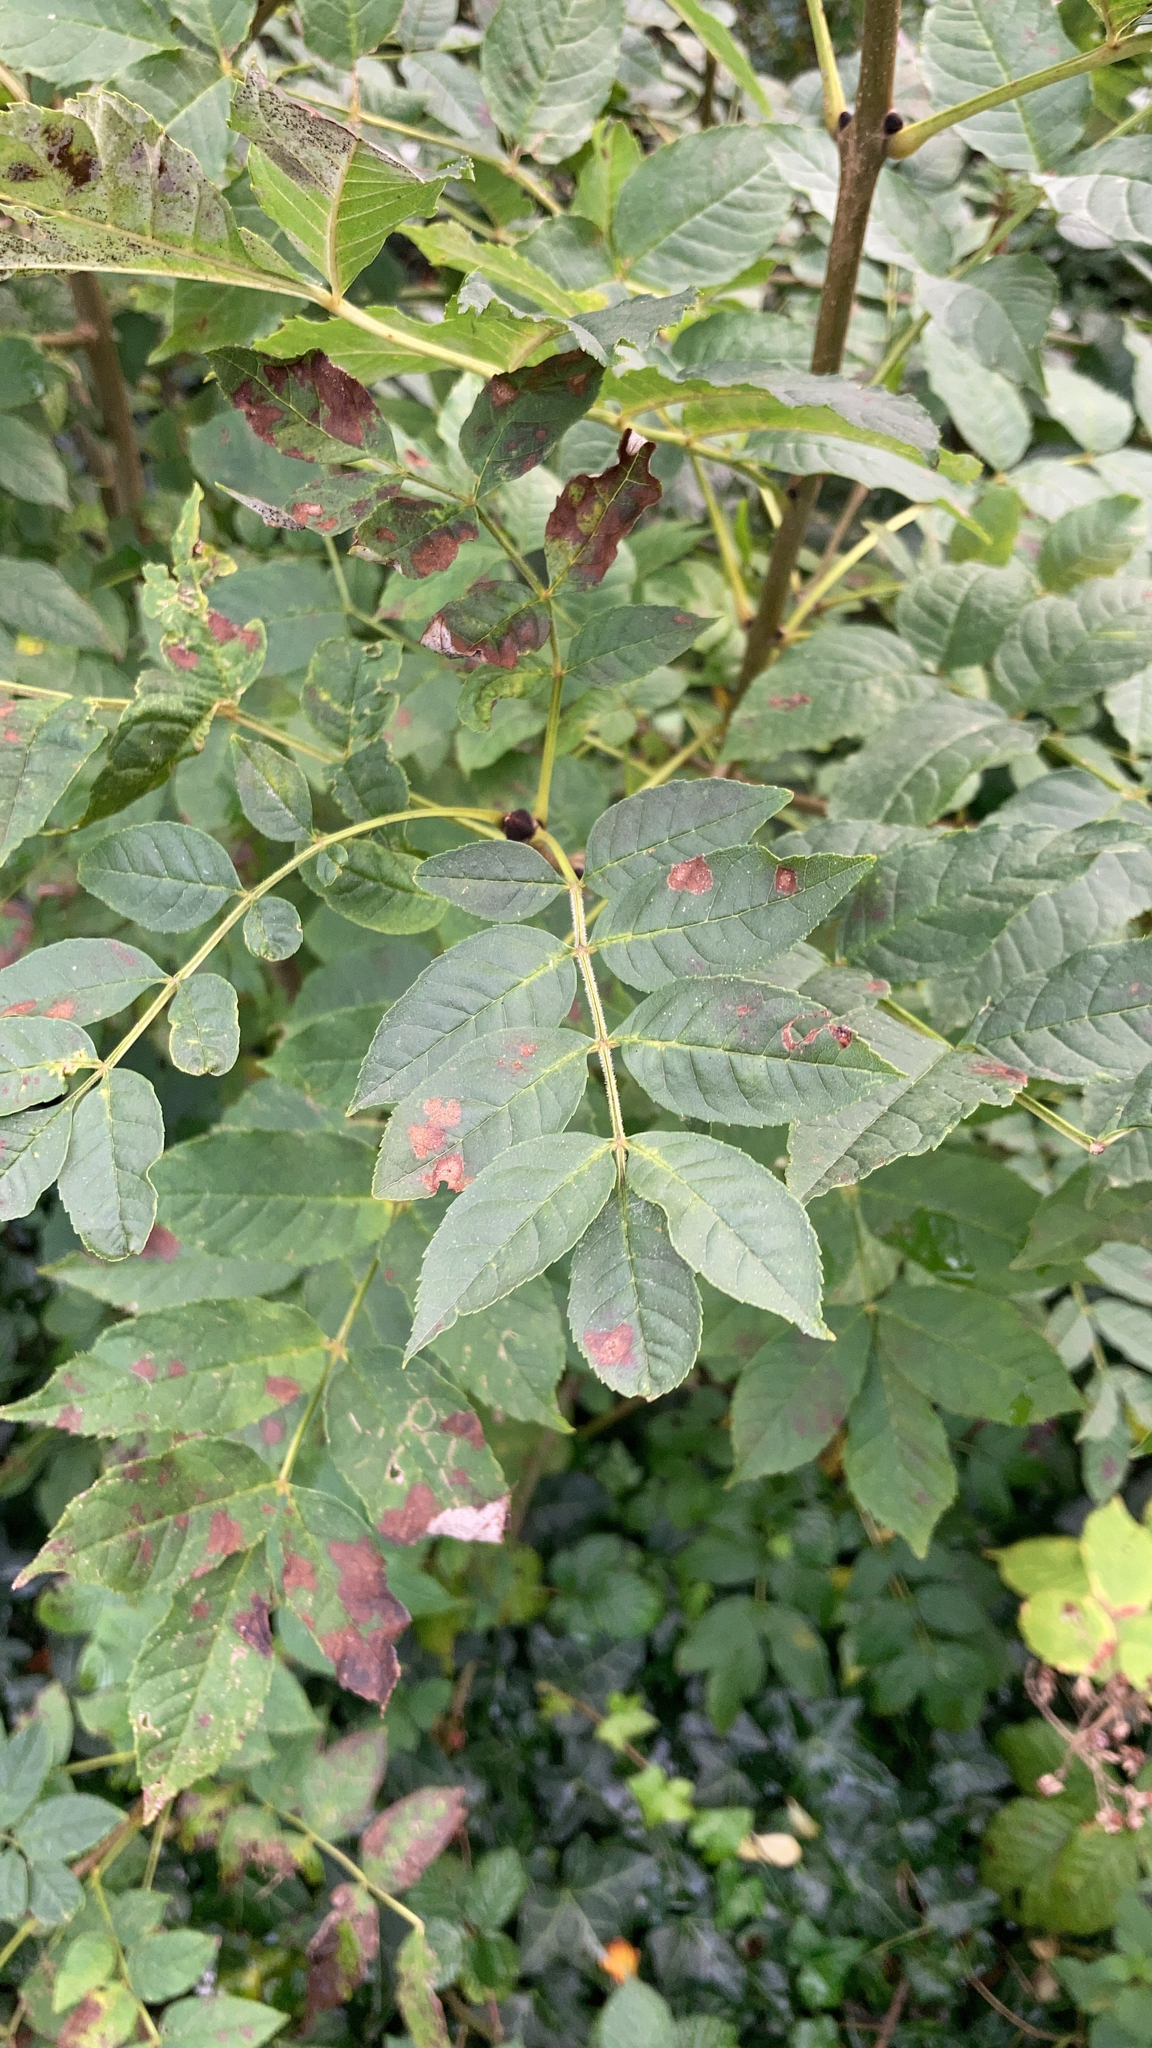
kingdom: Plantae
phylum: Tracheophyta
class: Magnoliopsida
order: Lamiales
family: Oleaceae
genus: Fraxinus
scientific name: Fraxinus excelsior
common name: European ash
